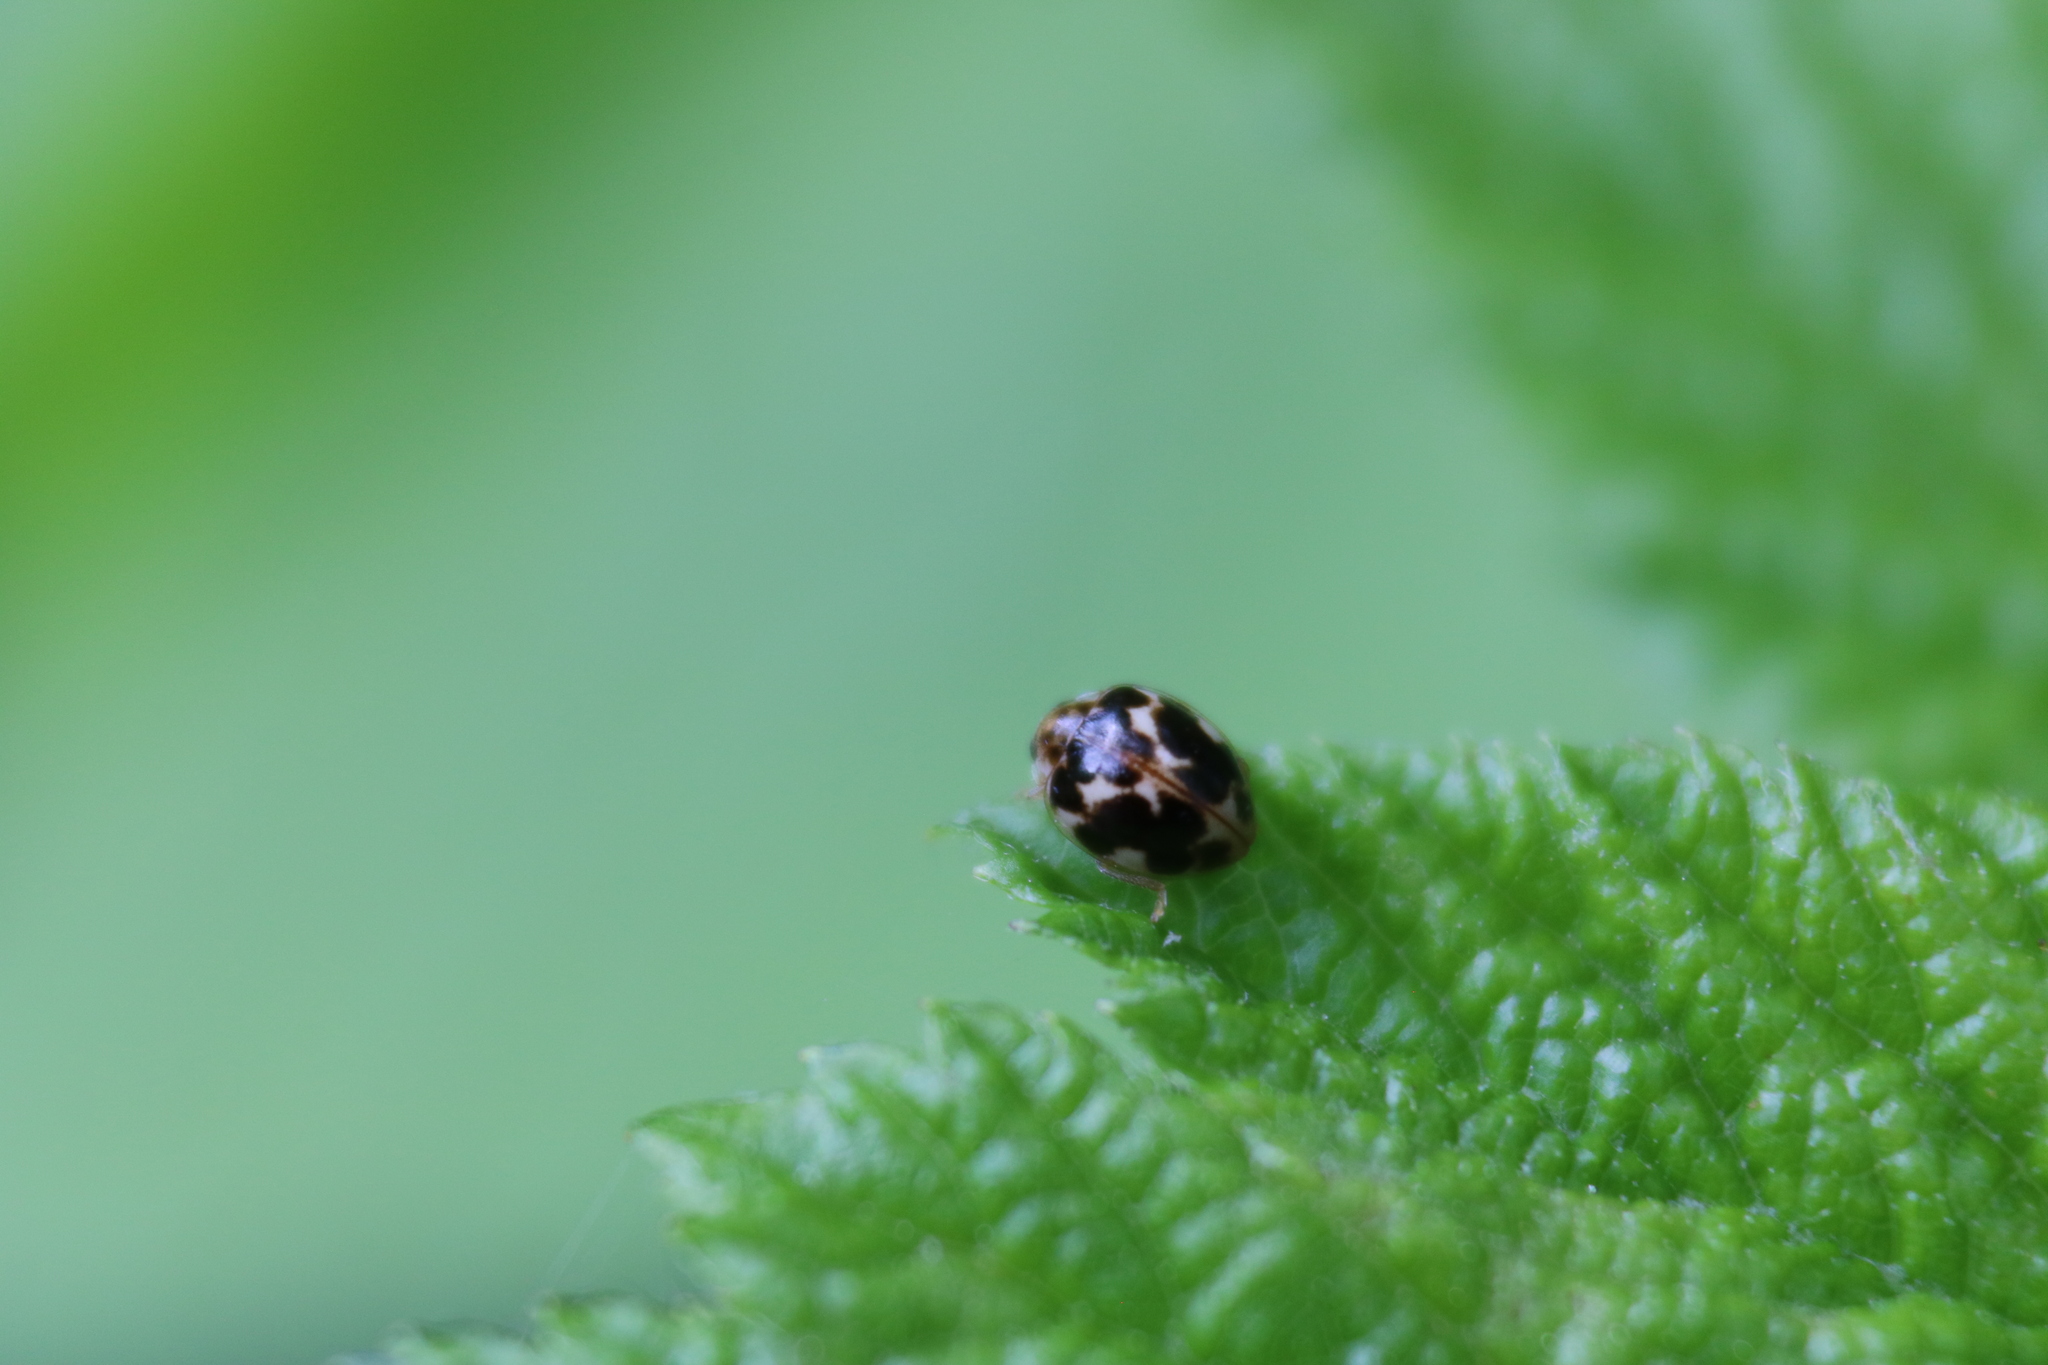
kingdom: Animalia
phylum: Arthropoda
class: Insecta
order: Coleoptera
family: Coccinellidae
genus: Psyllobora
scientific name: Psyllobora vigintimaculata
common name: Ladybird beetle
